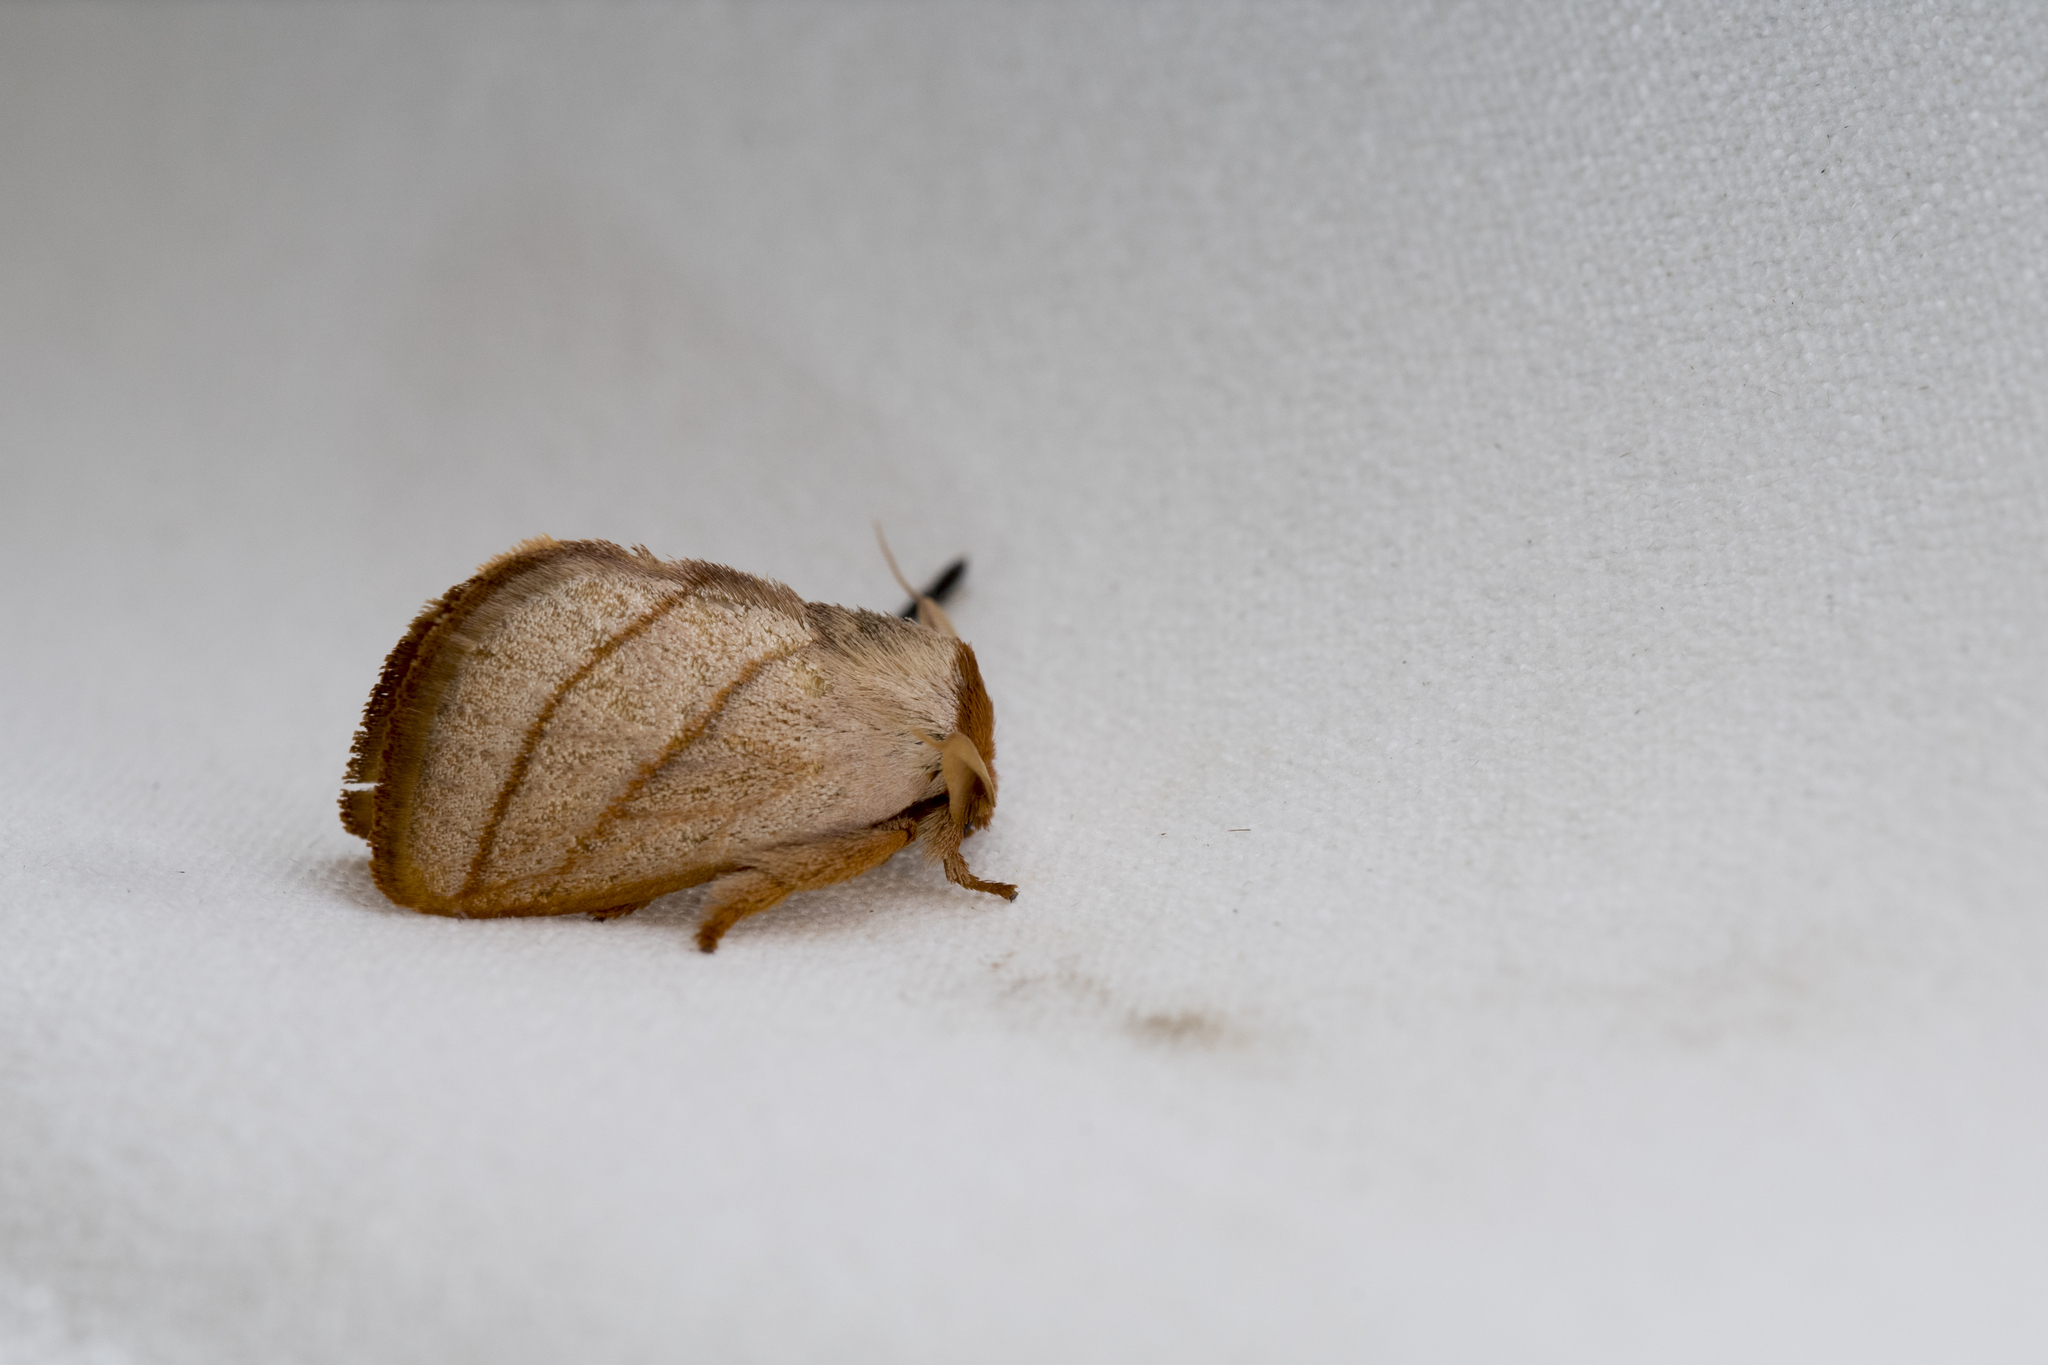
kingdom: Animalia
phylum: Arthropoda
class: Insecta
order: Lepidoptera
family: Limacodidae
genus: Cania
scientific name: Cania heppneri
